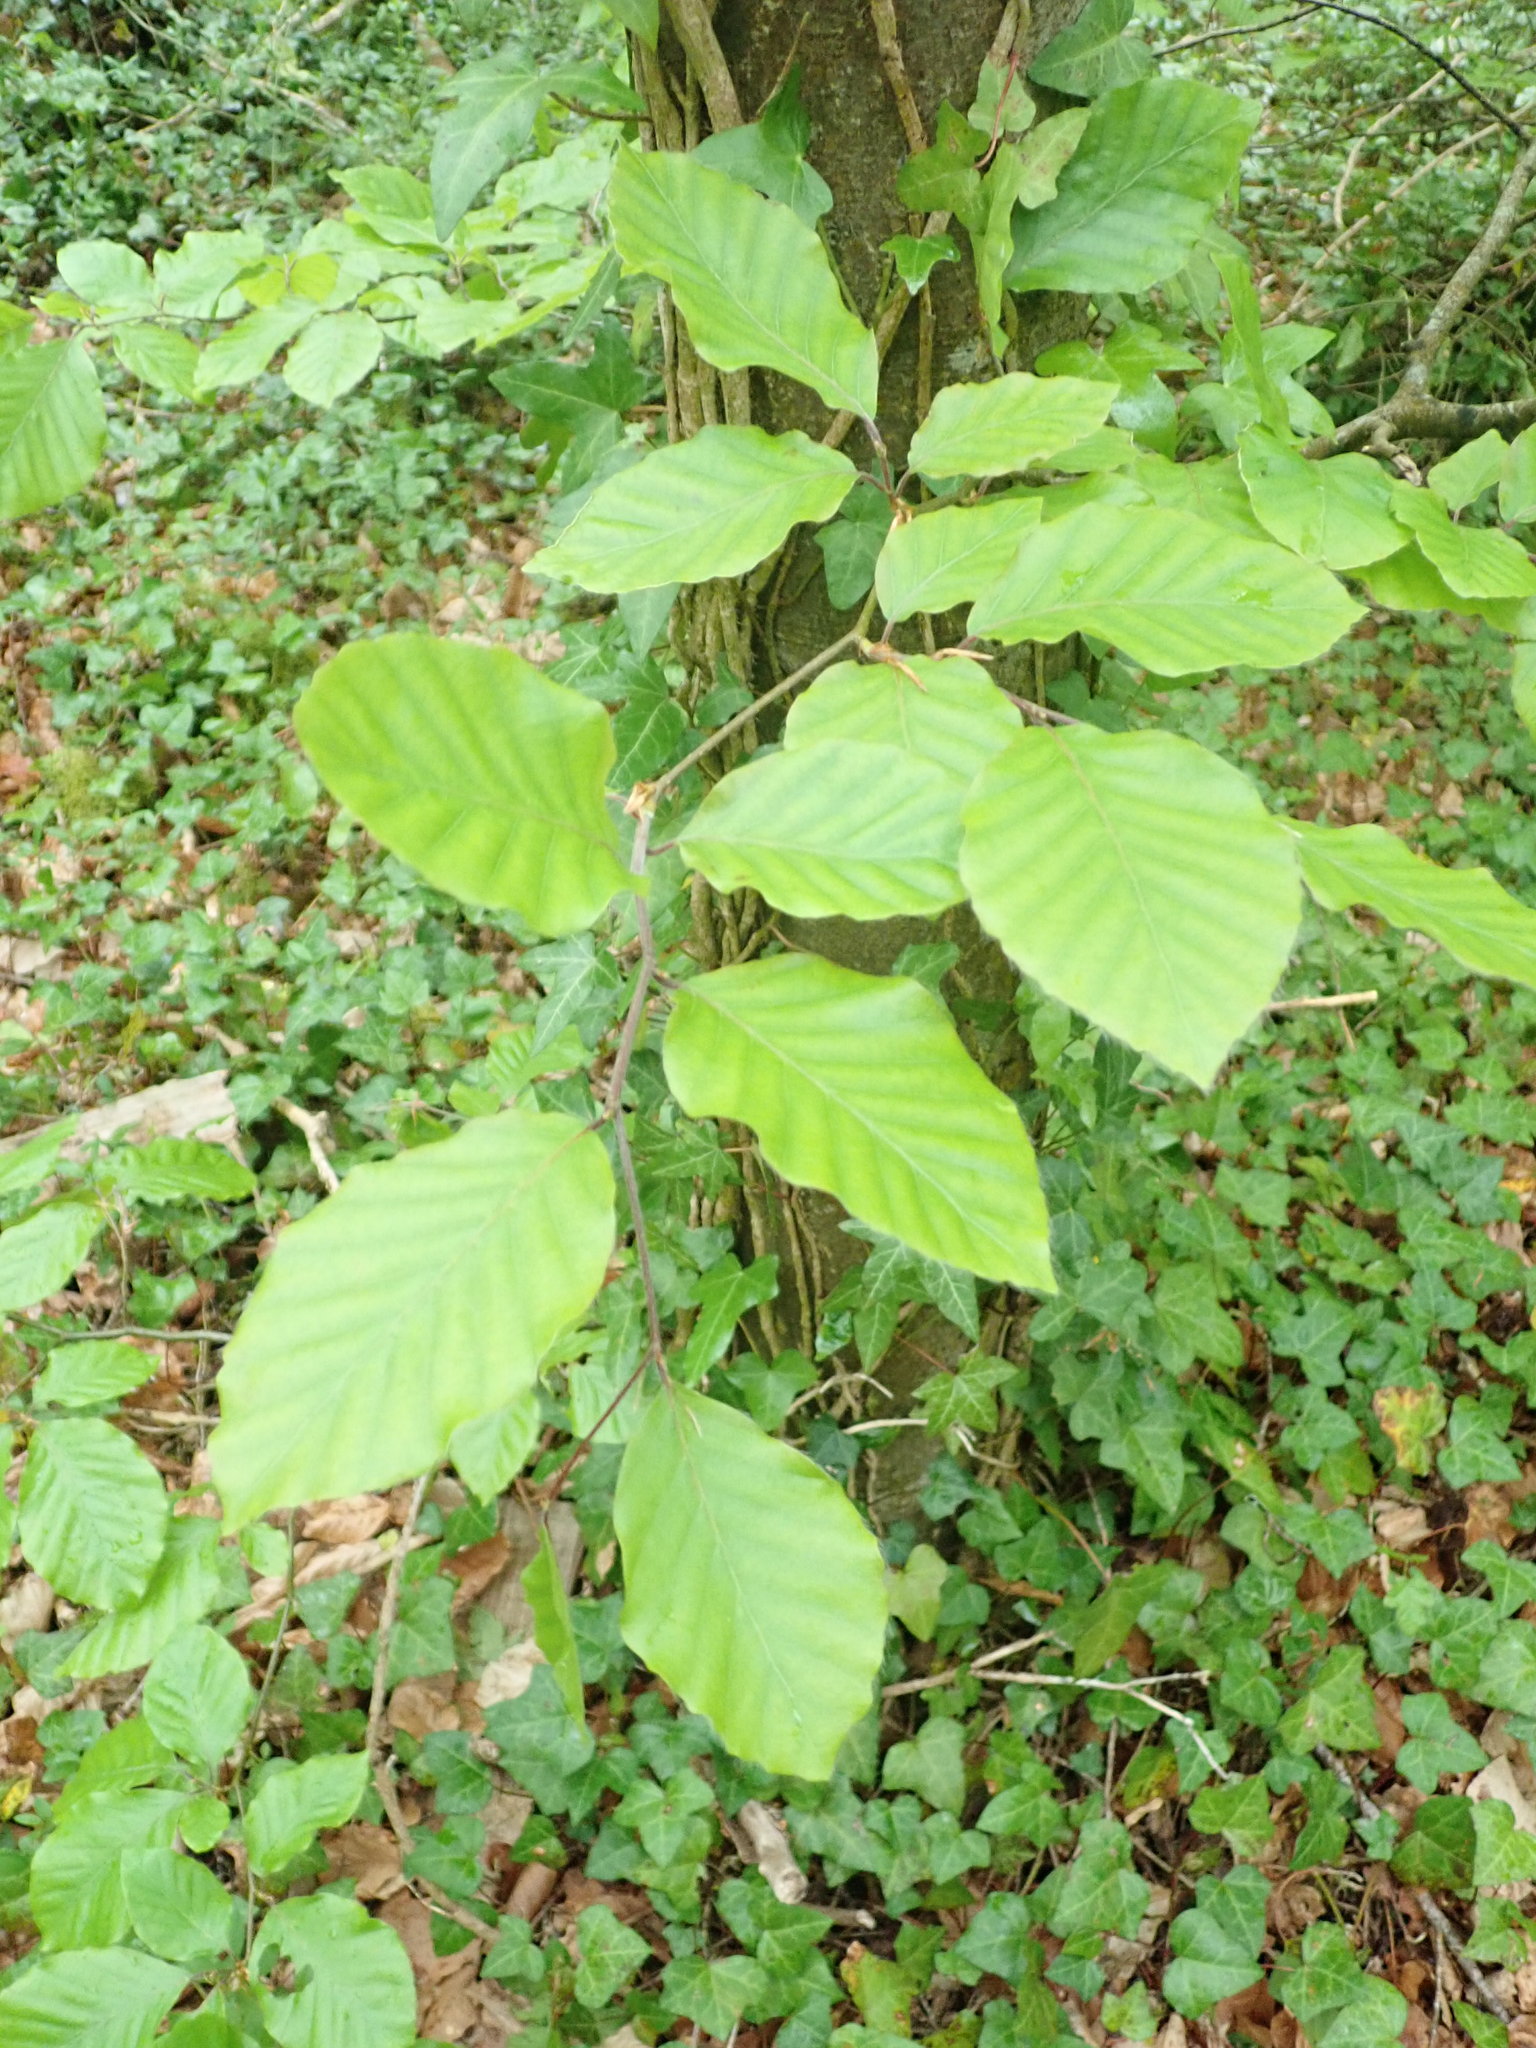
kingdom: Plantae
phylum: Tracheophyta
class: Magnoliopsida
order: Fagales
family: Fagaceae
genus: Fagus
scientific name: Fagus sylvatica
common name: Beech
